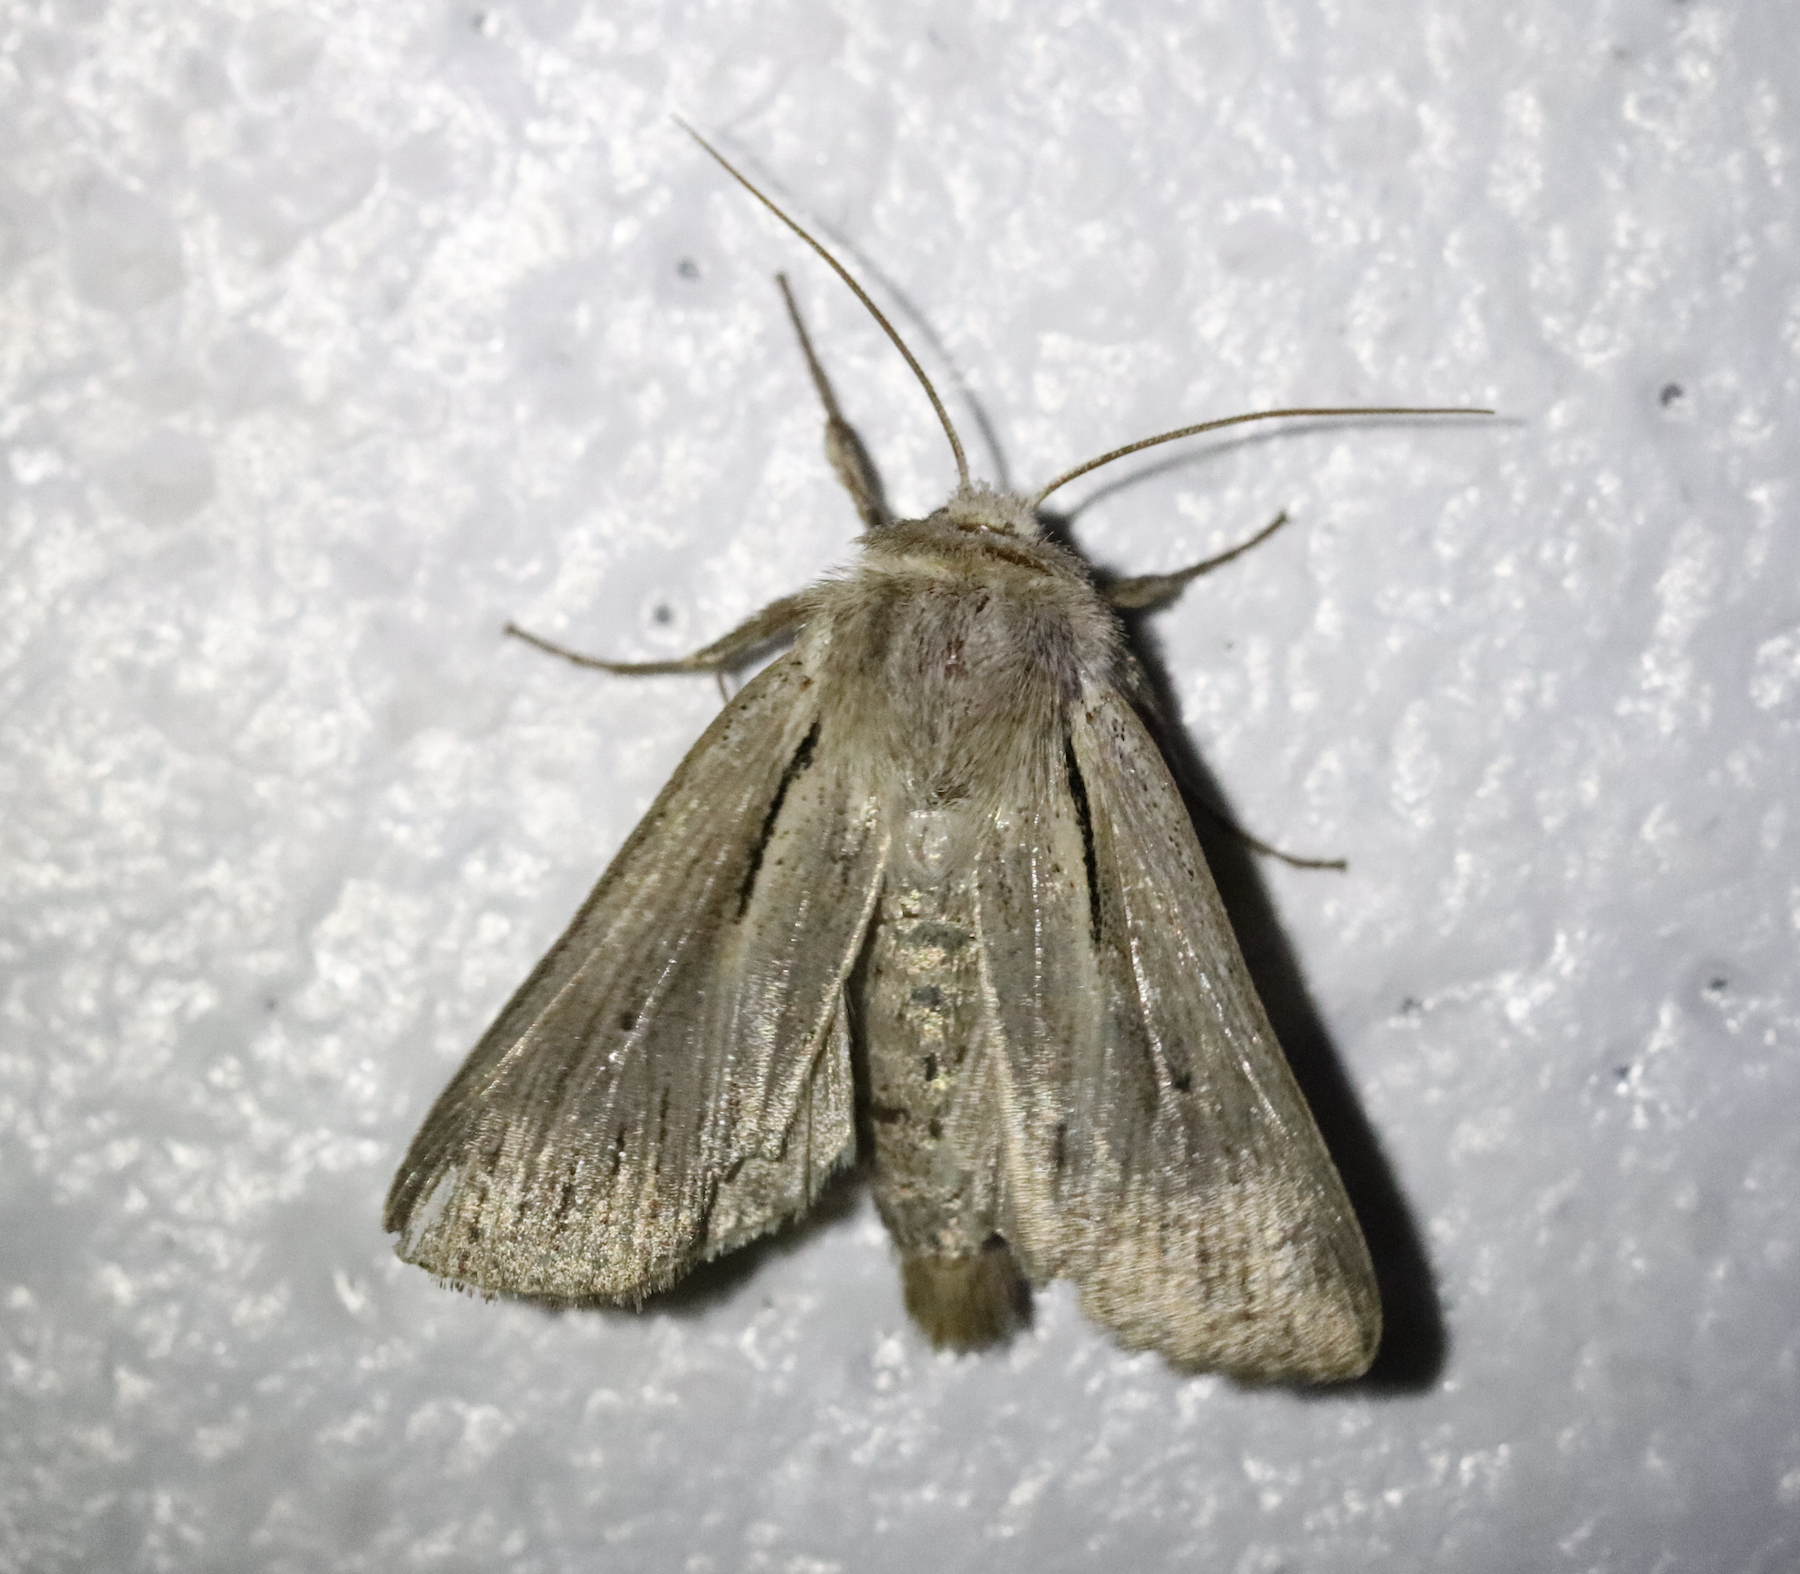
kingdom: Animalia
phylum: Arthropoda
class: Insecta
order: Lepidoptera
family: Noctuidae
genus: Leucania
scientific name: Leucania comma
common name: Shoulder-striped wainscot
